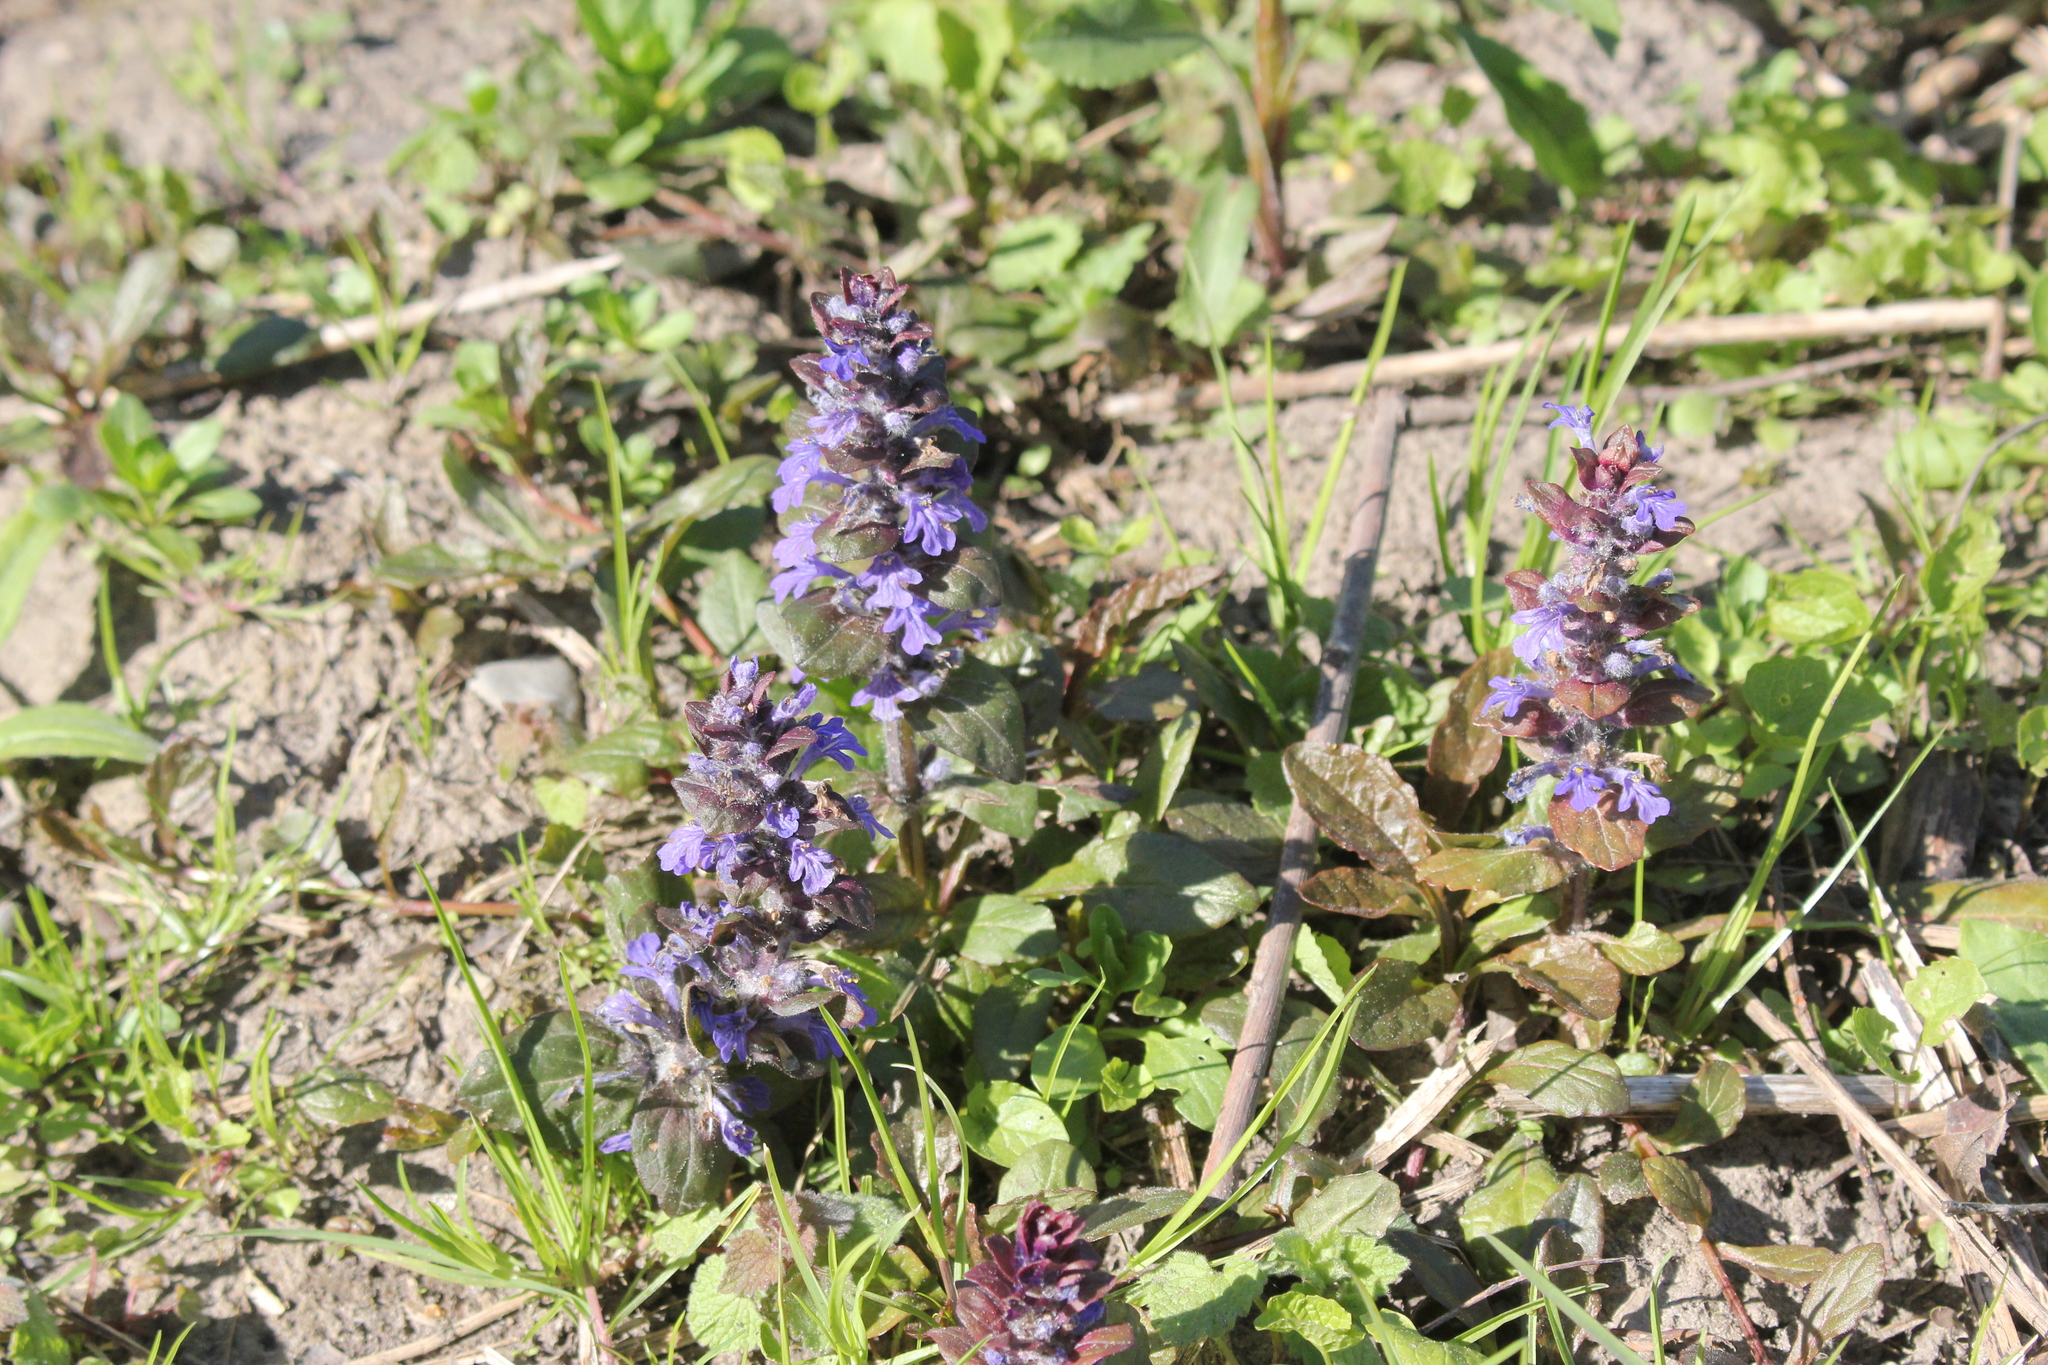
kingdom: Plantae
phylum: Tracheophyta
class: Magnoliopsida
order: Lamiales
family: Lamiaceae
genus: Ajuga
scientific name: Ajuga reptans
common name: Bugle
